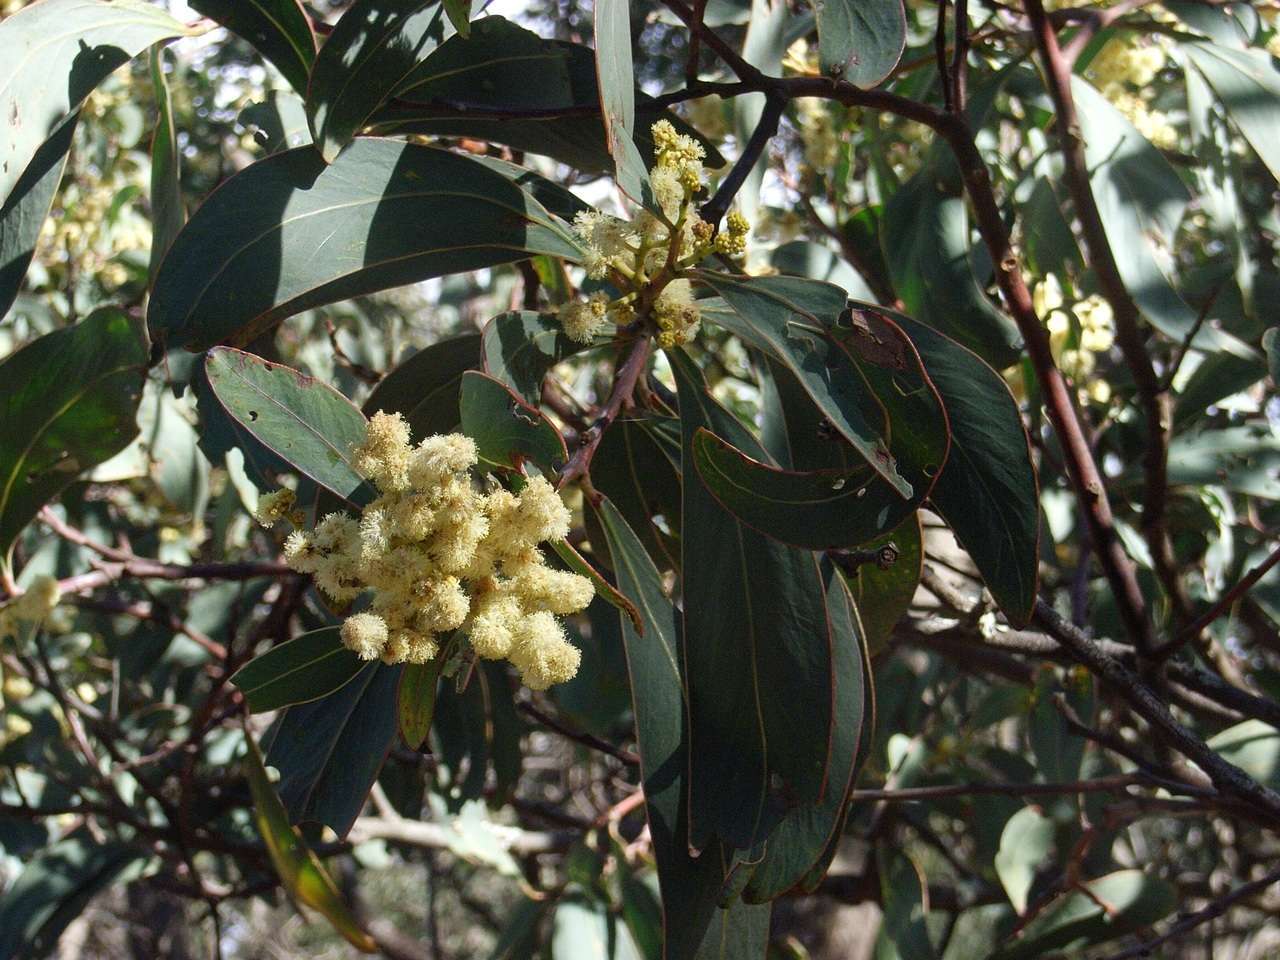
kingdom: Plantae
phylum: Tracheophyta
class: Magnoliopsida
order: Fabales
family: Fabaceae
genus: Acacia
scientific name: Acacia falciformis
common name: Tanning wattle
